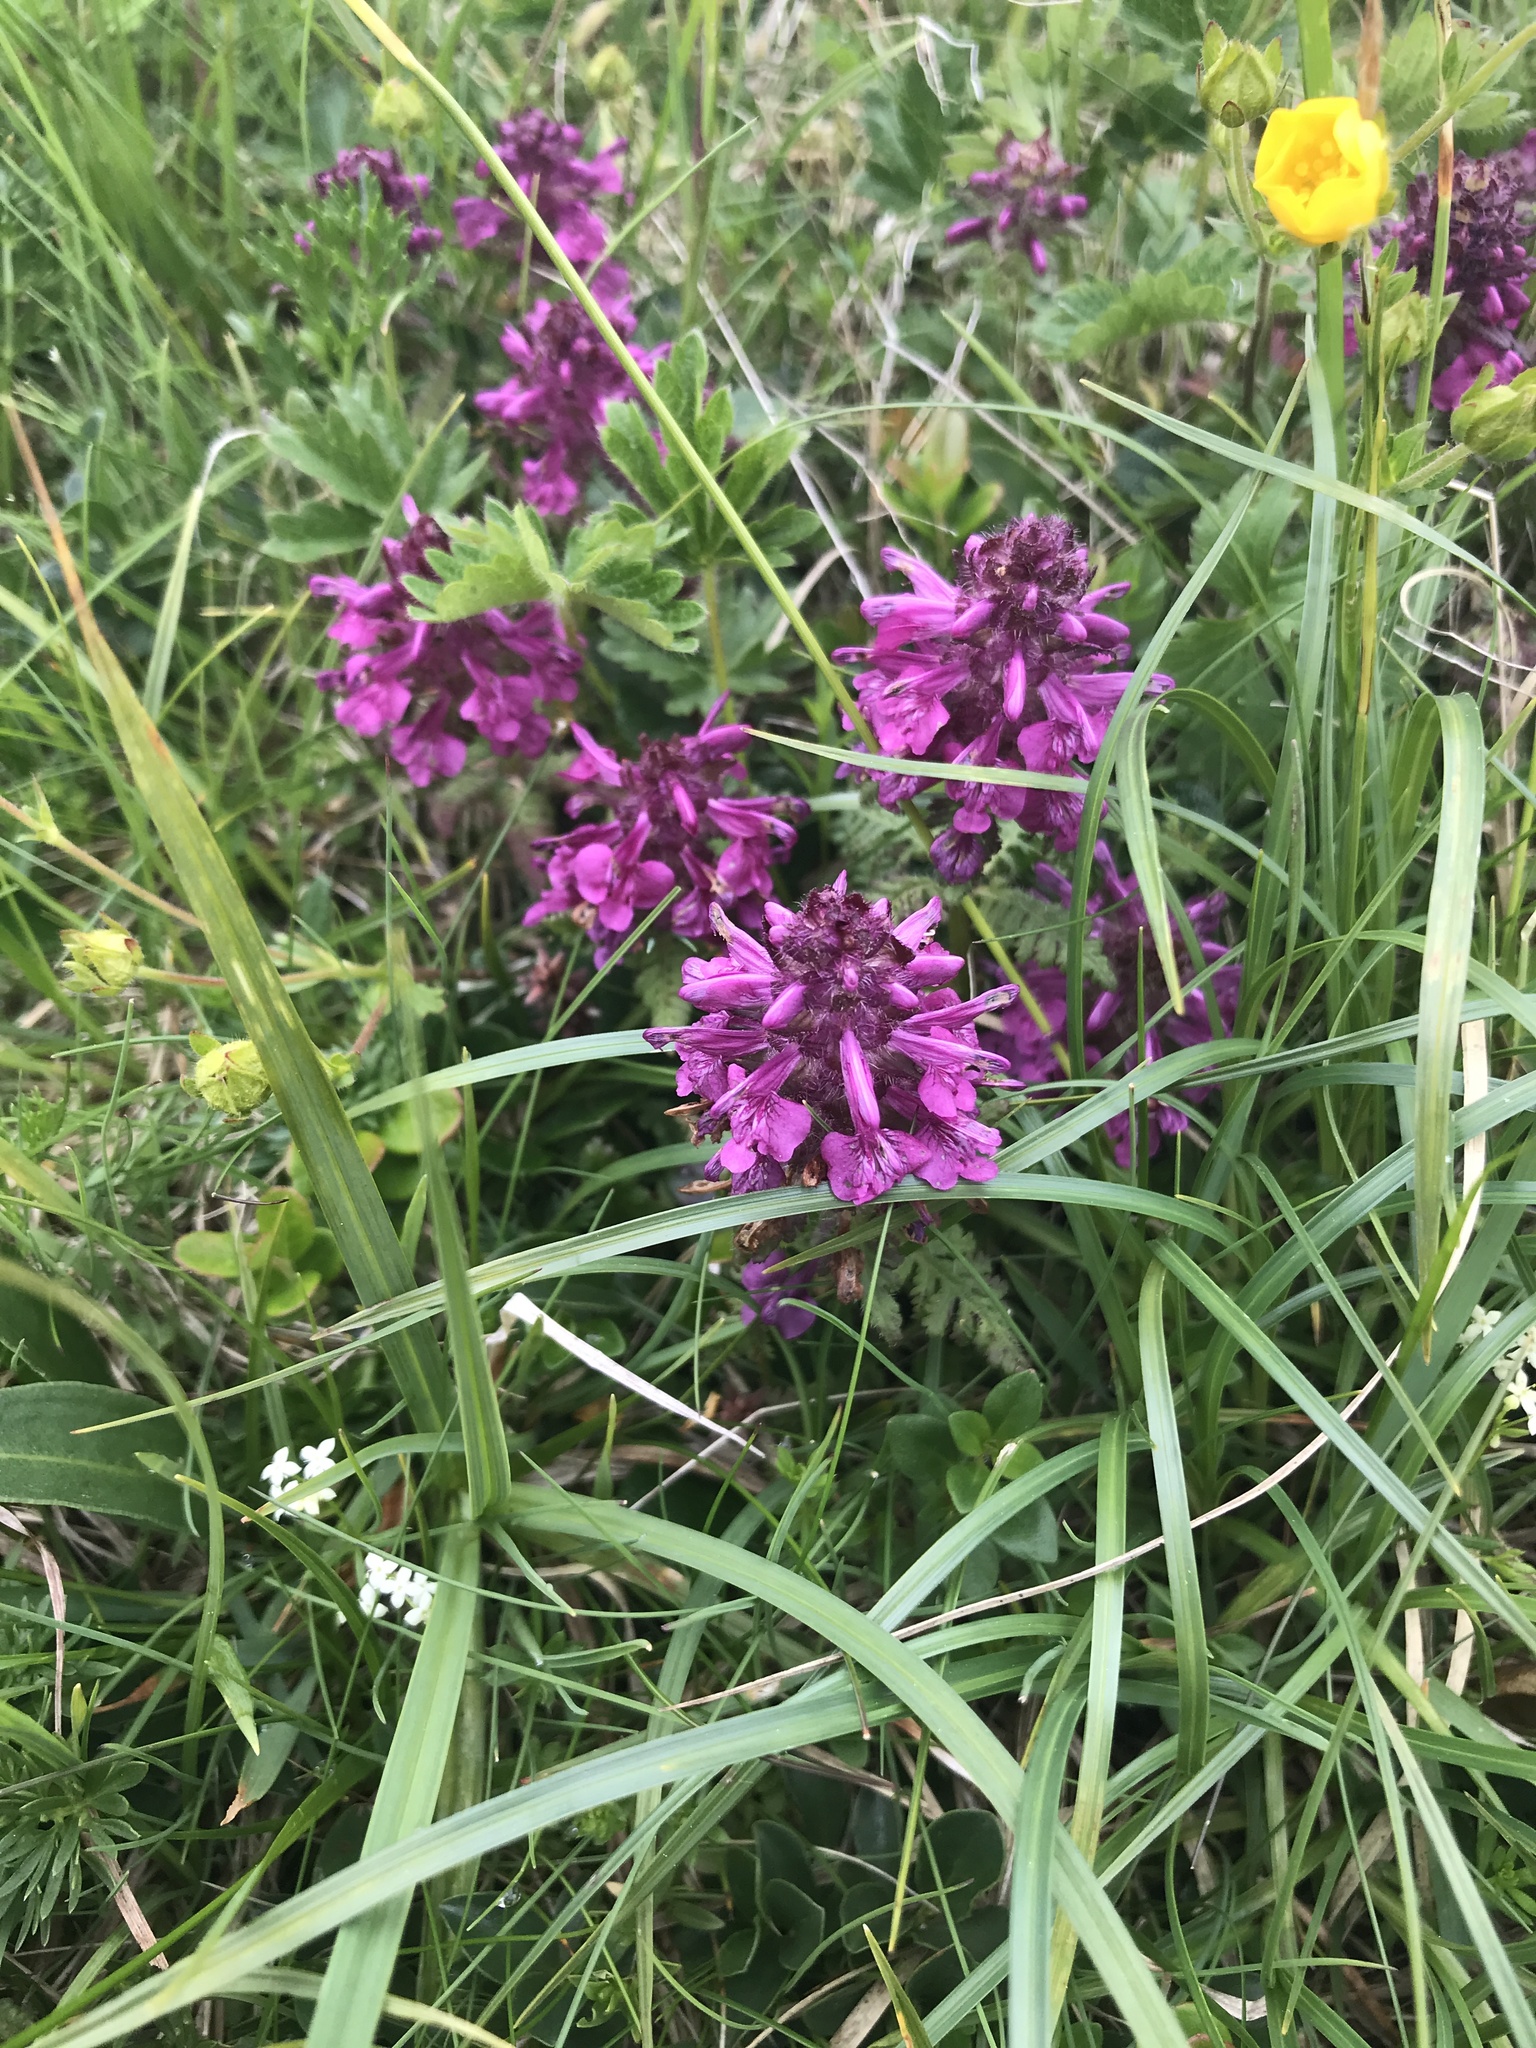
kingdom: Plantae
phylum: Tracheophyta
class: Magnoliopsida
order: Lamiales
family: Orobanchaceae
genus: Pedicularis
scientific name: Pedicularis verticillata
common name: Whorled lousewort
